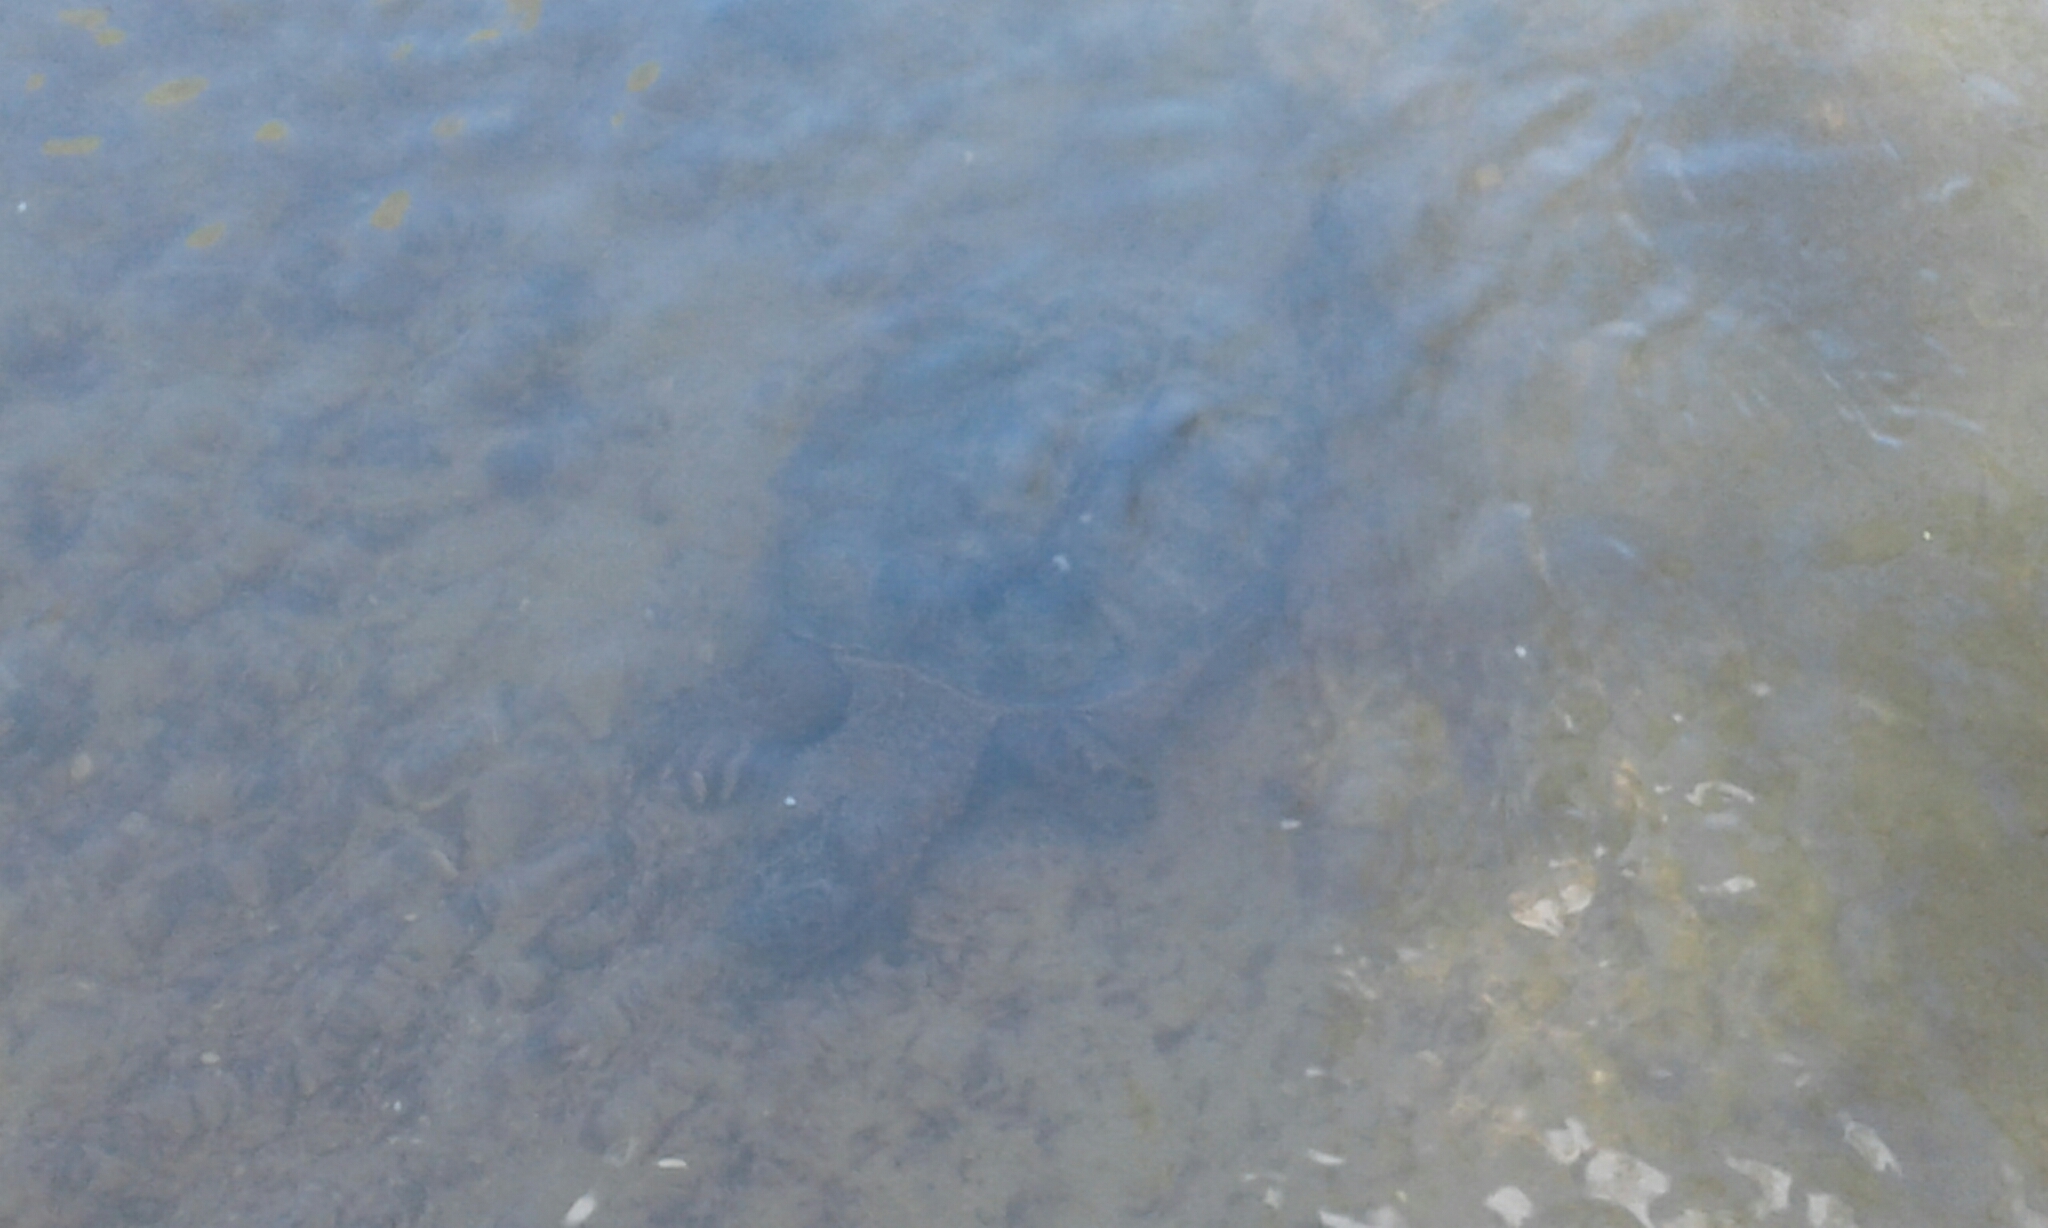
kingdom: Animalia
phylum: Chordata
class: Testudines
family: Chelydridae
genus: Chelydra
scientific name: Chelydra serpentina
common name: Common snapping turtle
